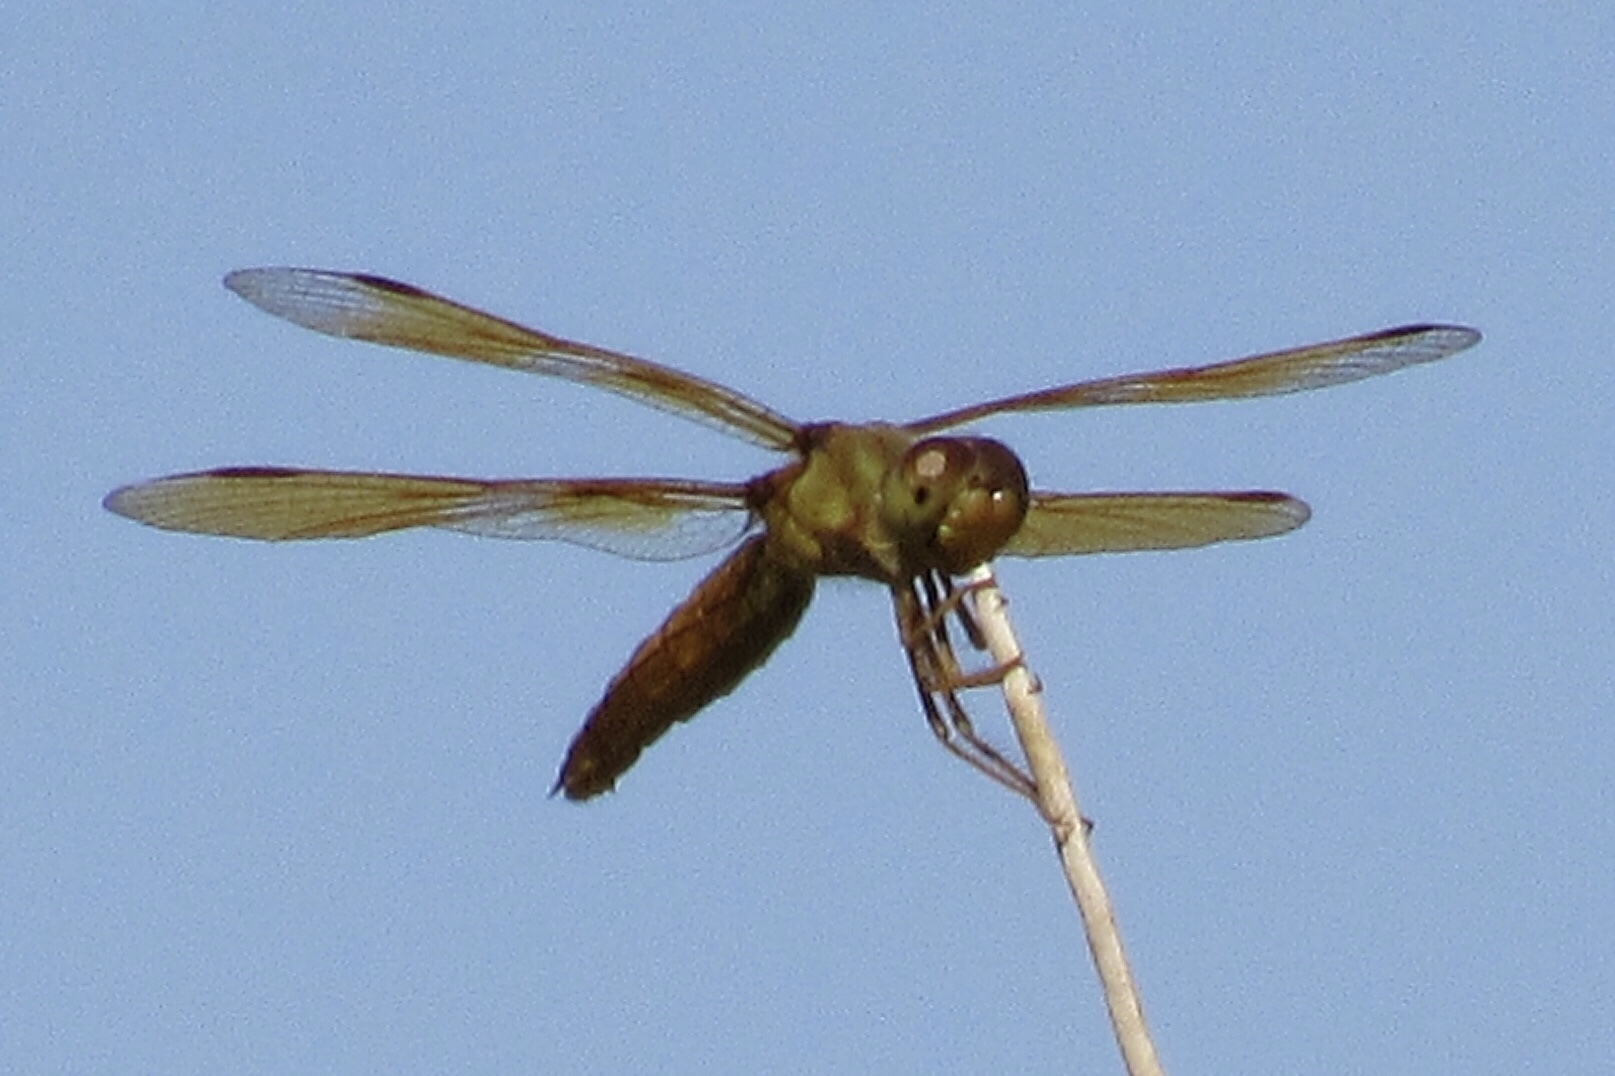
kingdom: Animalia
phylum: Arthropoda
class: Insecta
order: Odonata
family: Libellulidae
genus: Perithemis
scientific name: Perithemis intensa
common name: Mexican amberwing
